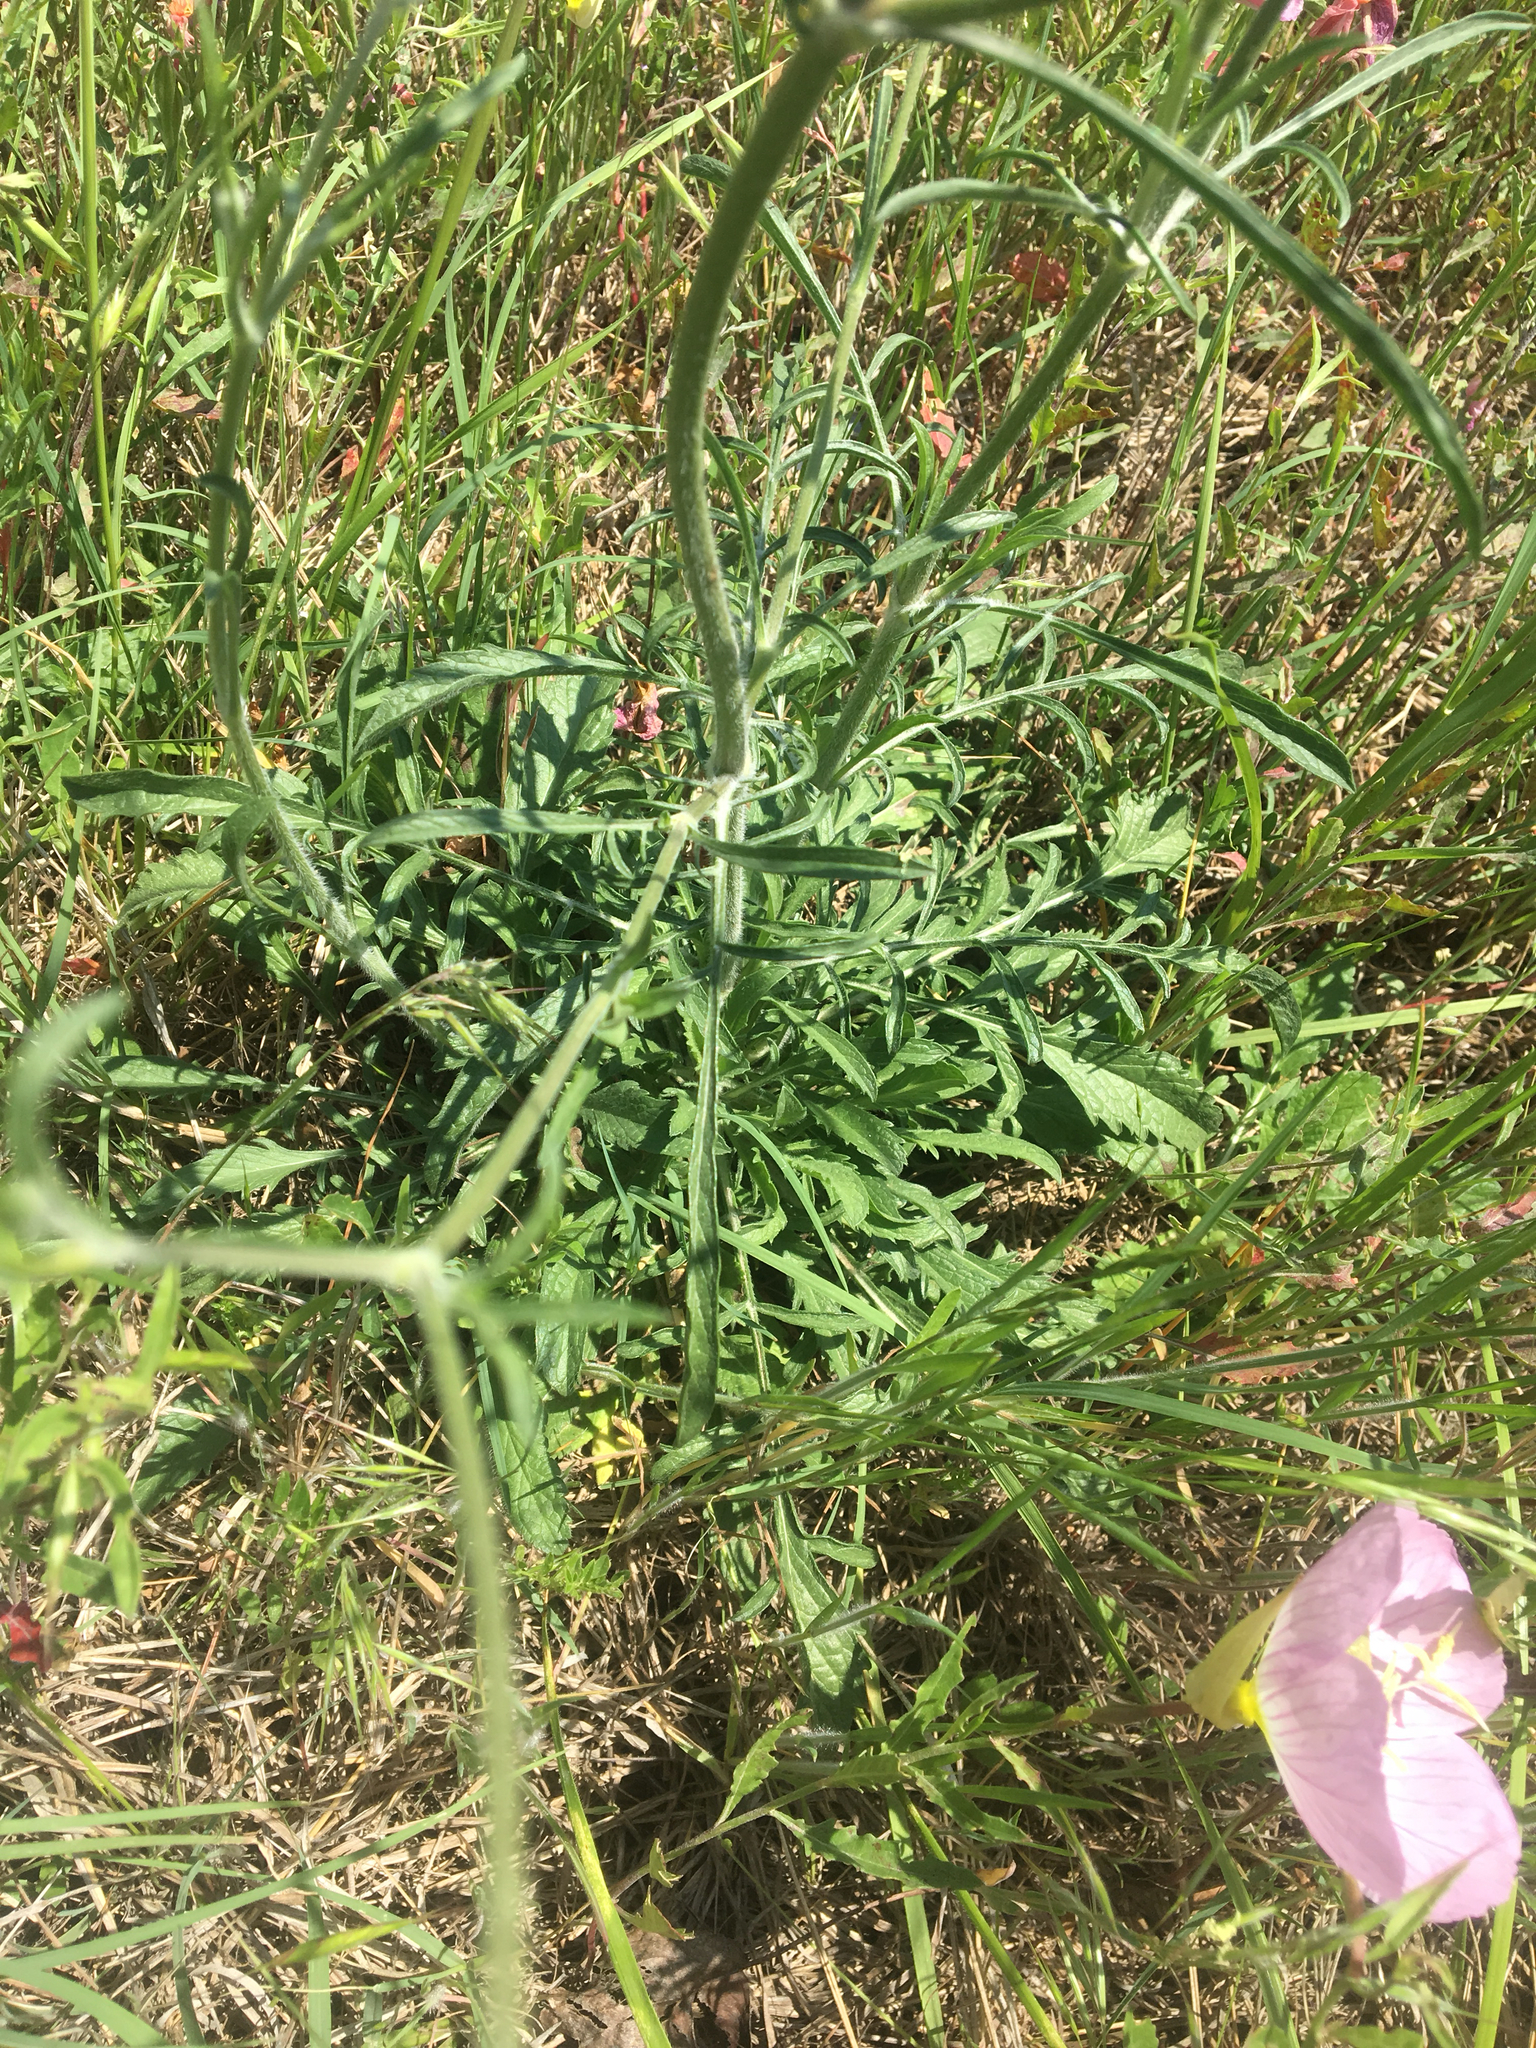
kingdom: Plantae
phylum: Tracheophyta
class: Magnoliopsida
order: Dipsacales
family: Caprifoliaceae
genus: Sixalix
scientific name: Sixalix atropurpurea
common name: Sweet scabious
